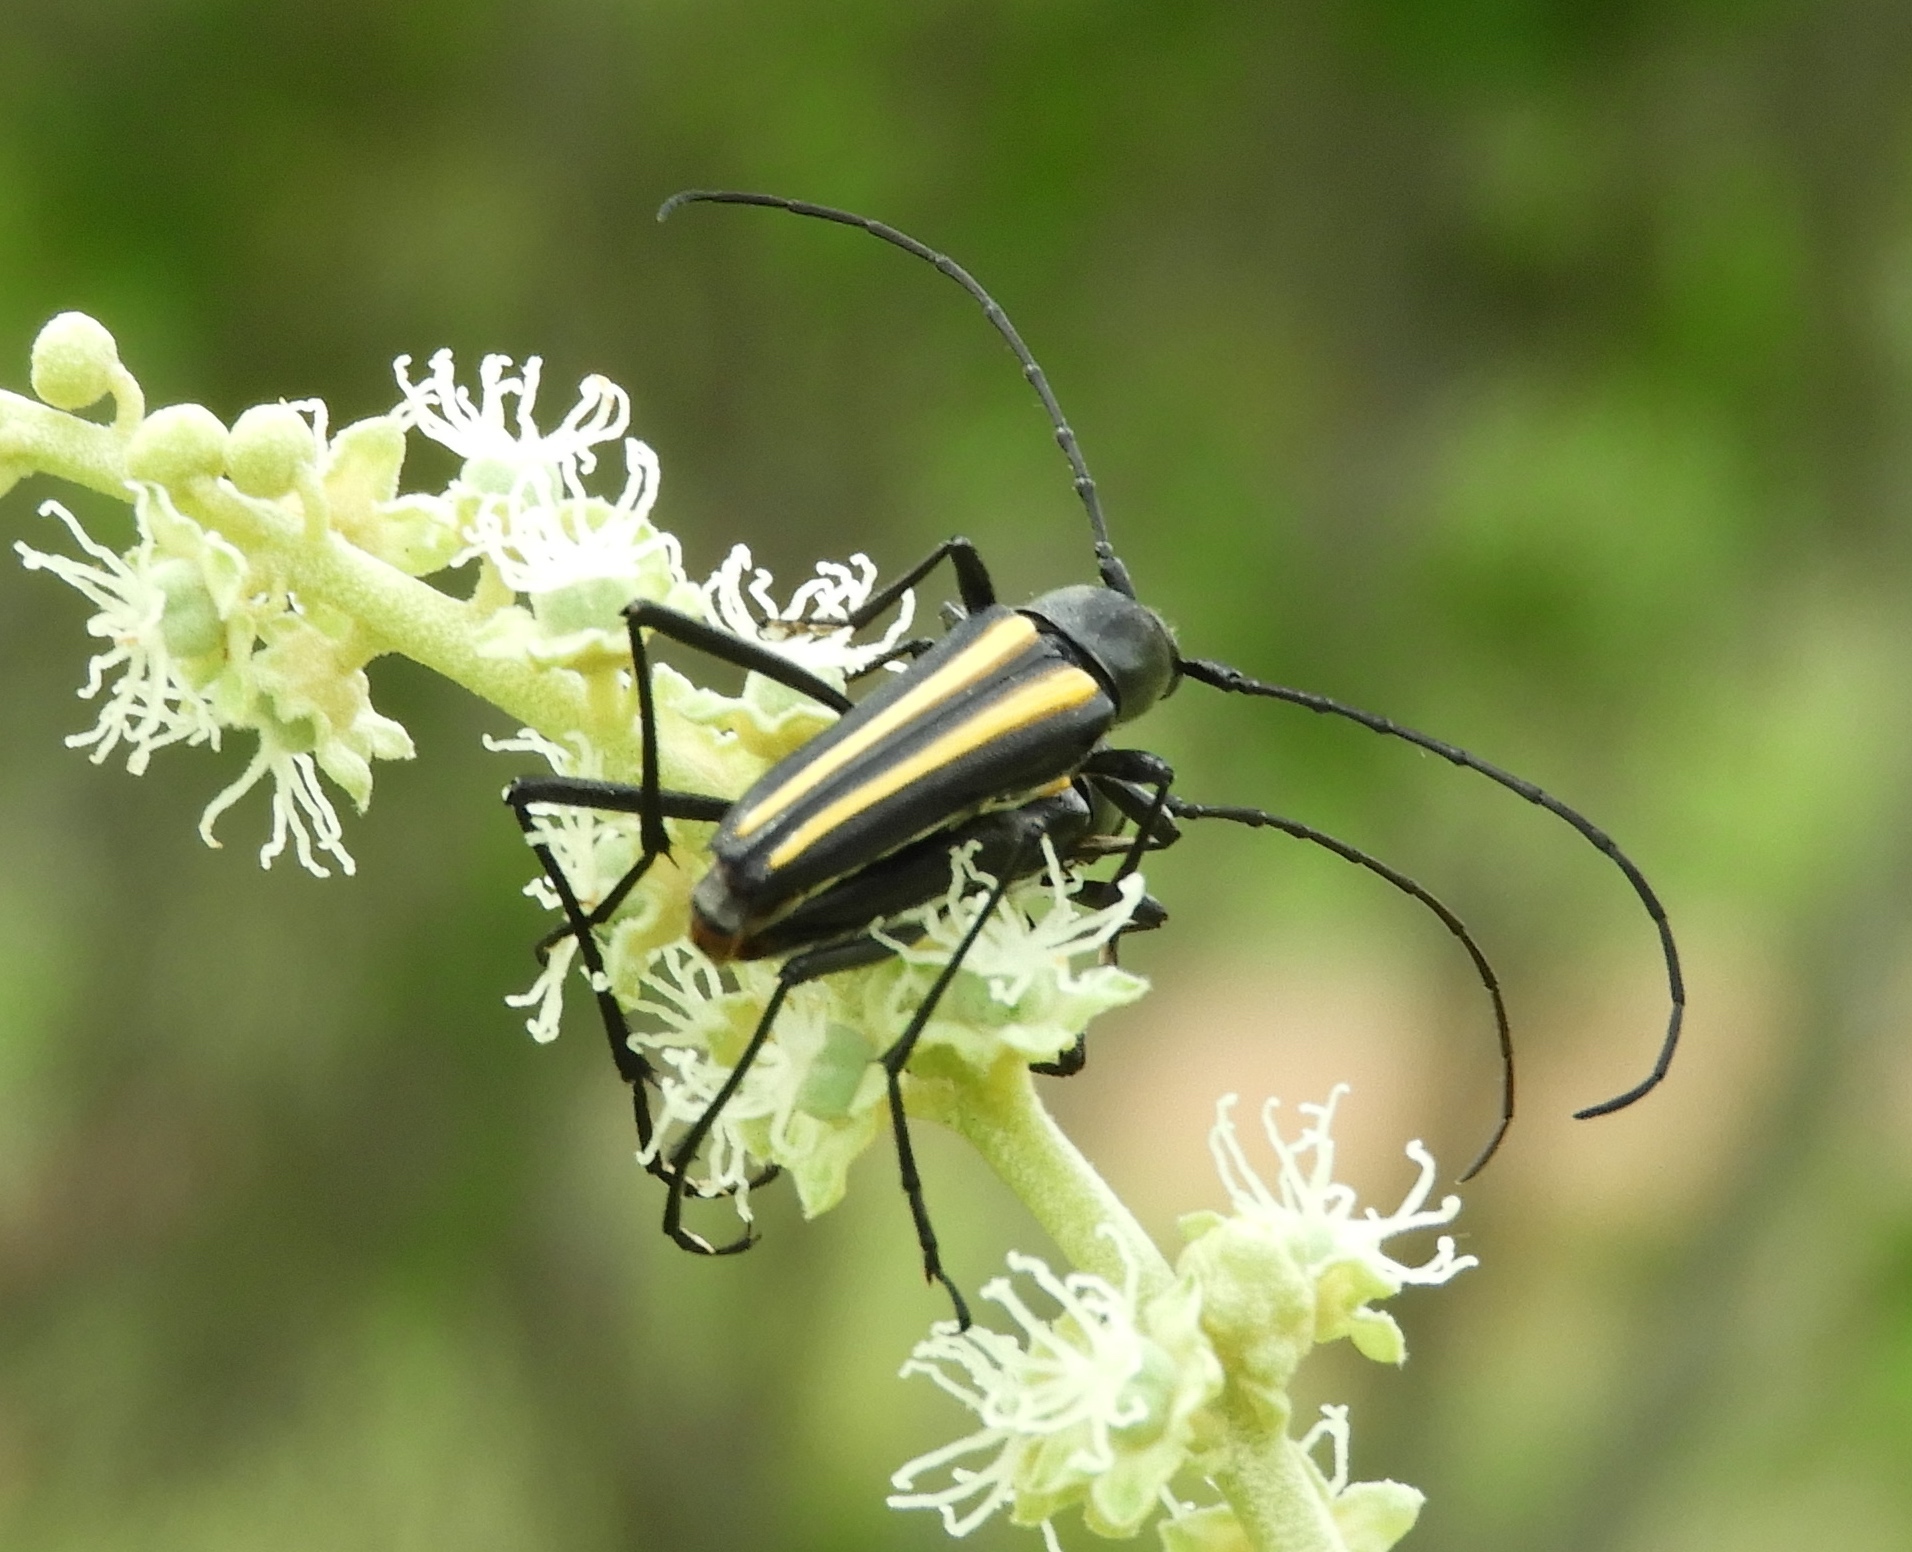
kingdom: Animalia
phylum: Arthropoda
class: Insecta
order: Coleoptera
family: Cerambycidae
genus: Lophalia
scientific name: Lophalia
